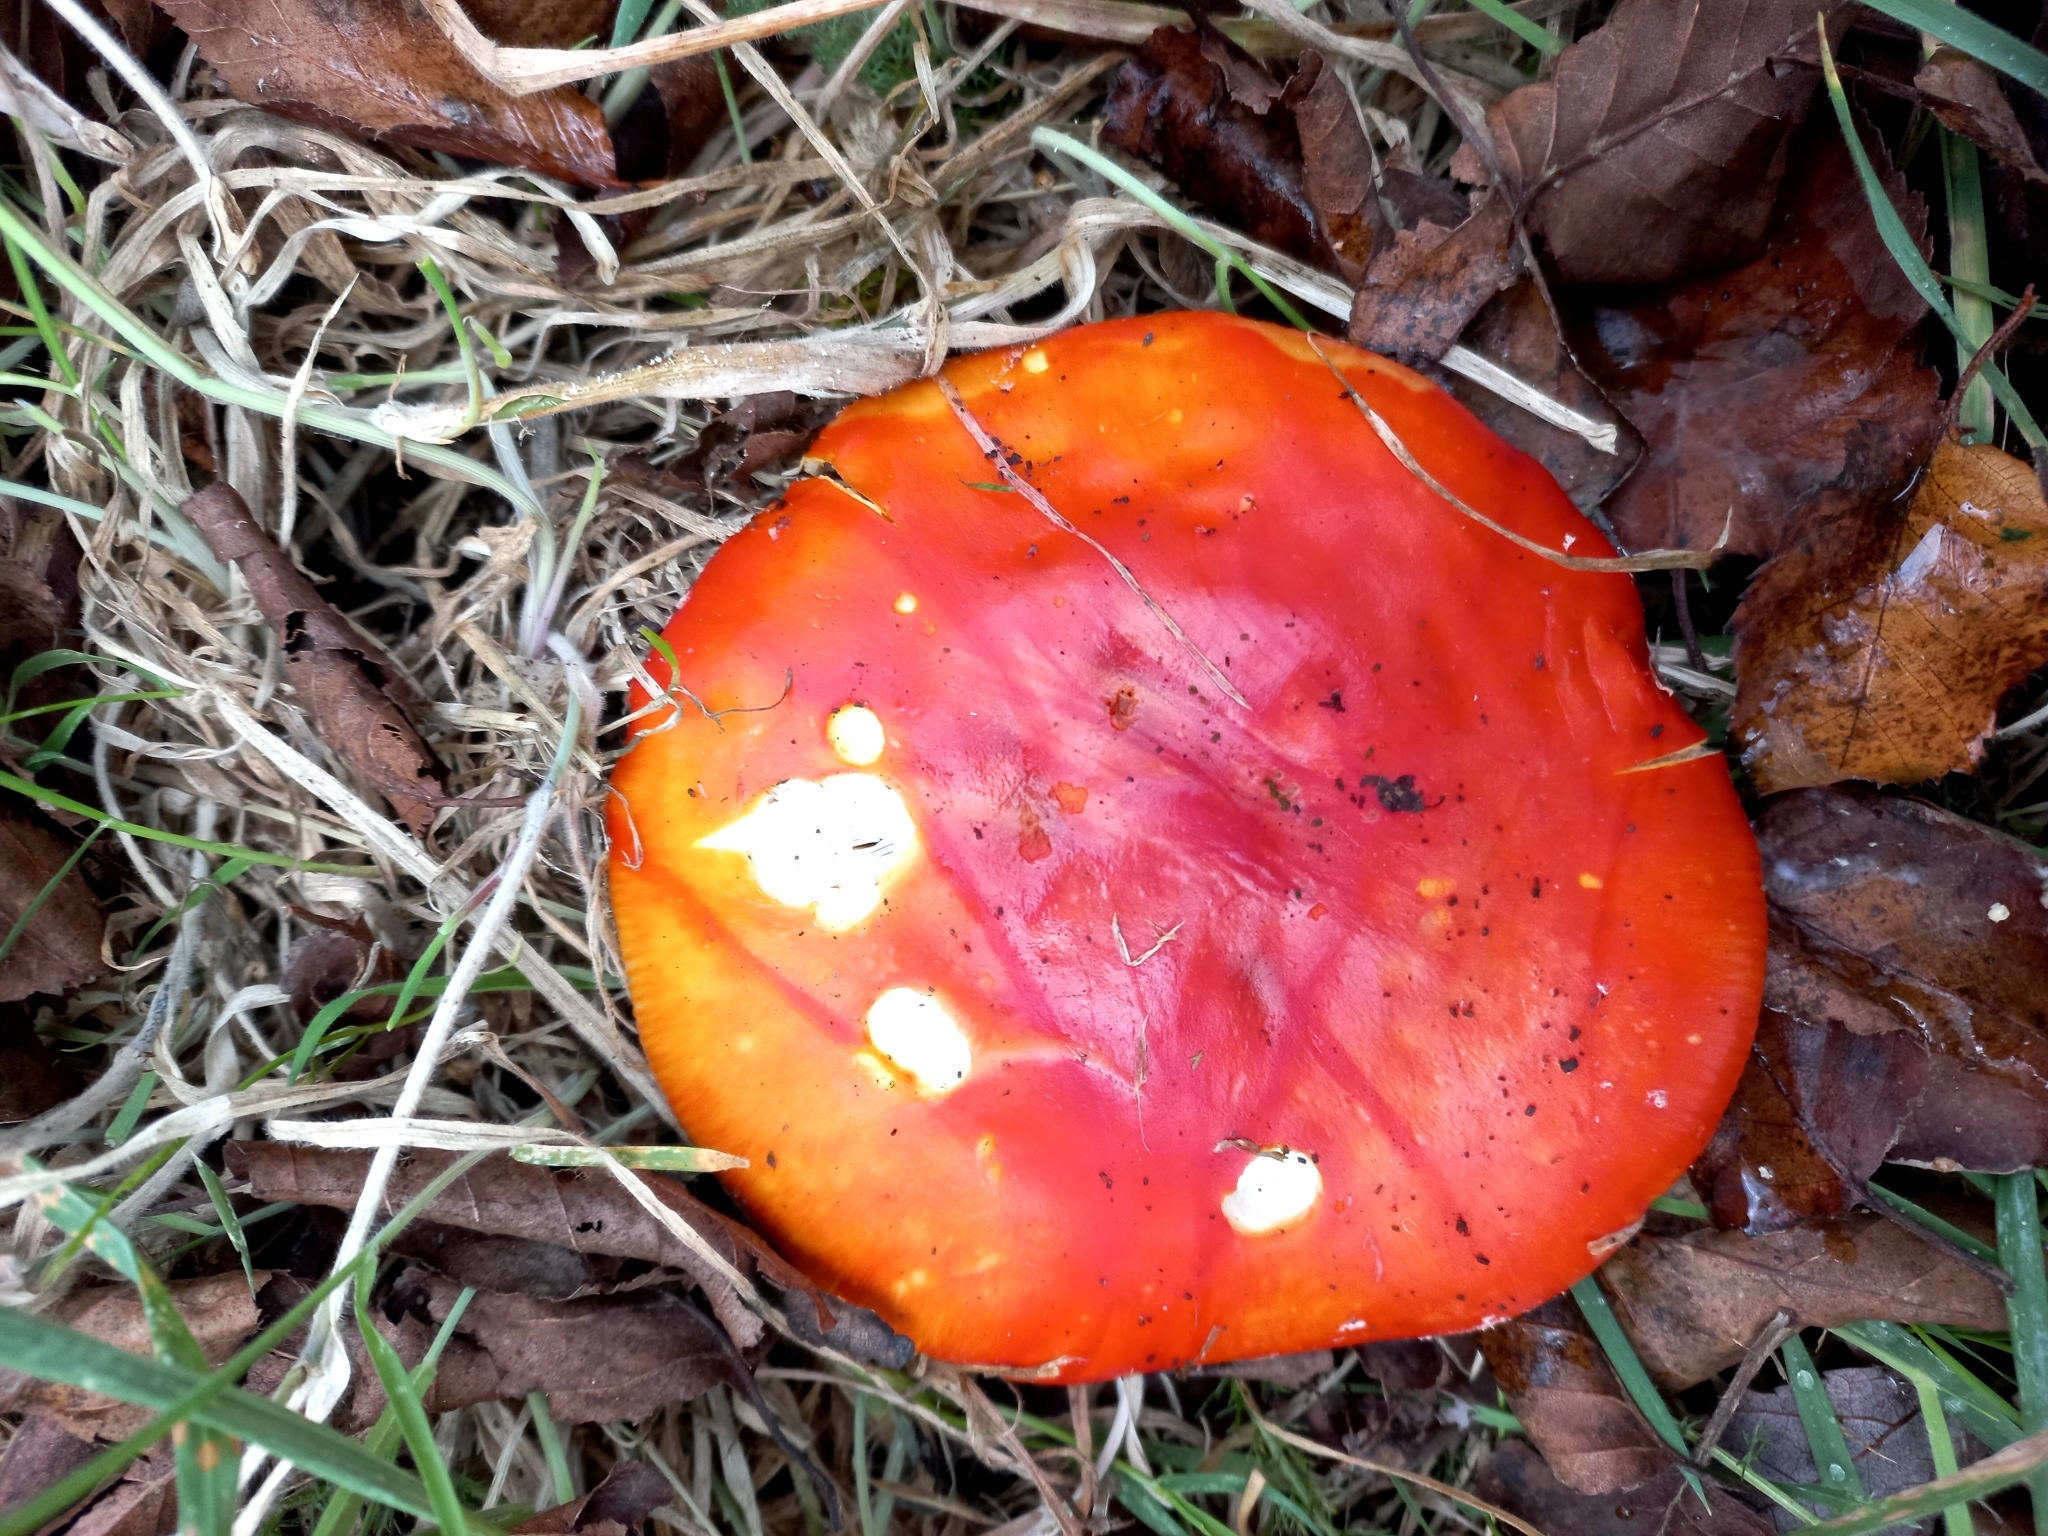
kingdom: Fungi
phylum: Basidiomycota
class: Agaricomycetes
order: Agaricales
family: Amanitaceae
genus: Amanita
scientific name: Amanita muscaria
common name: Fly agaric
